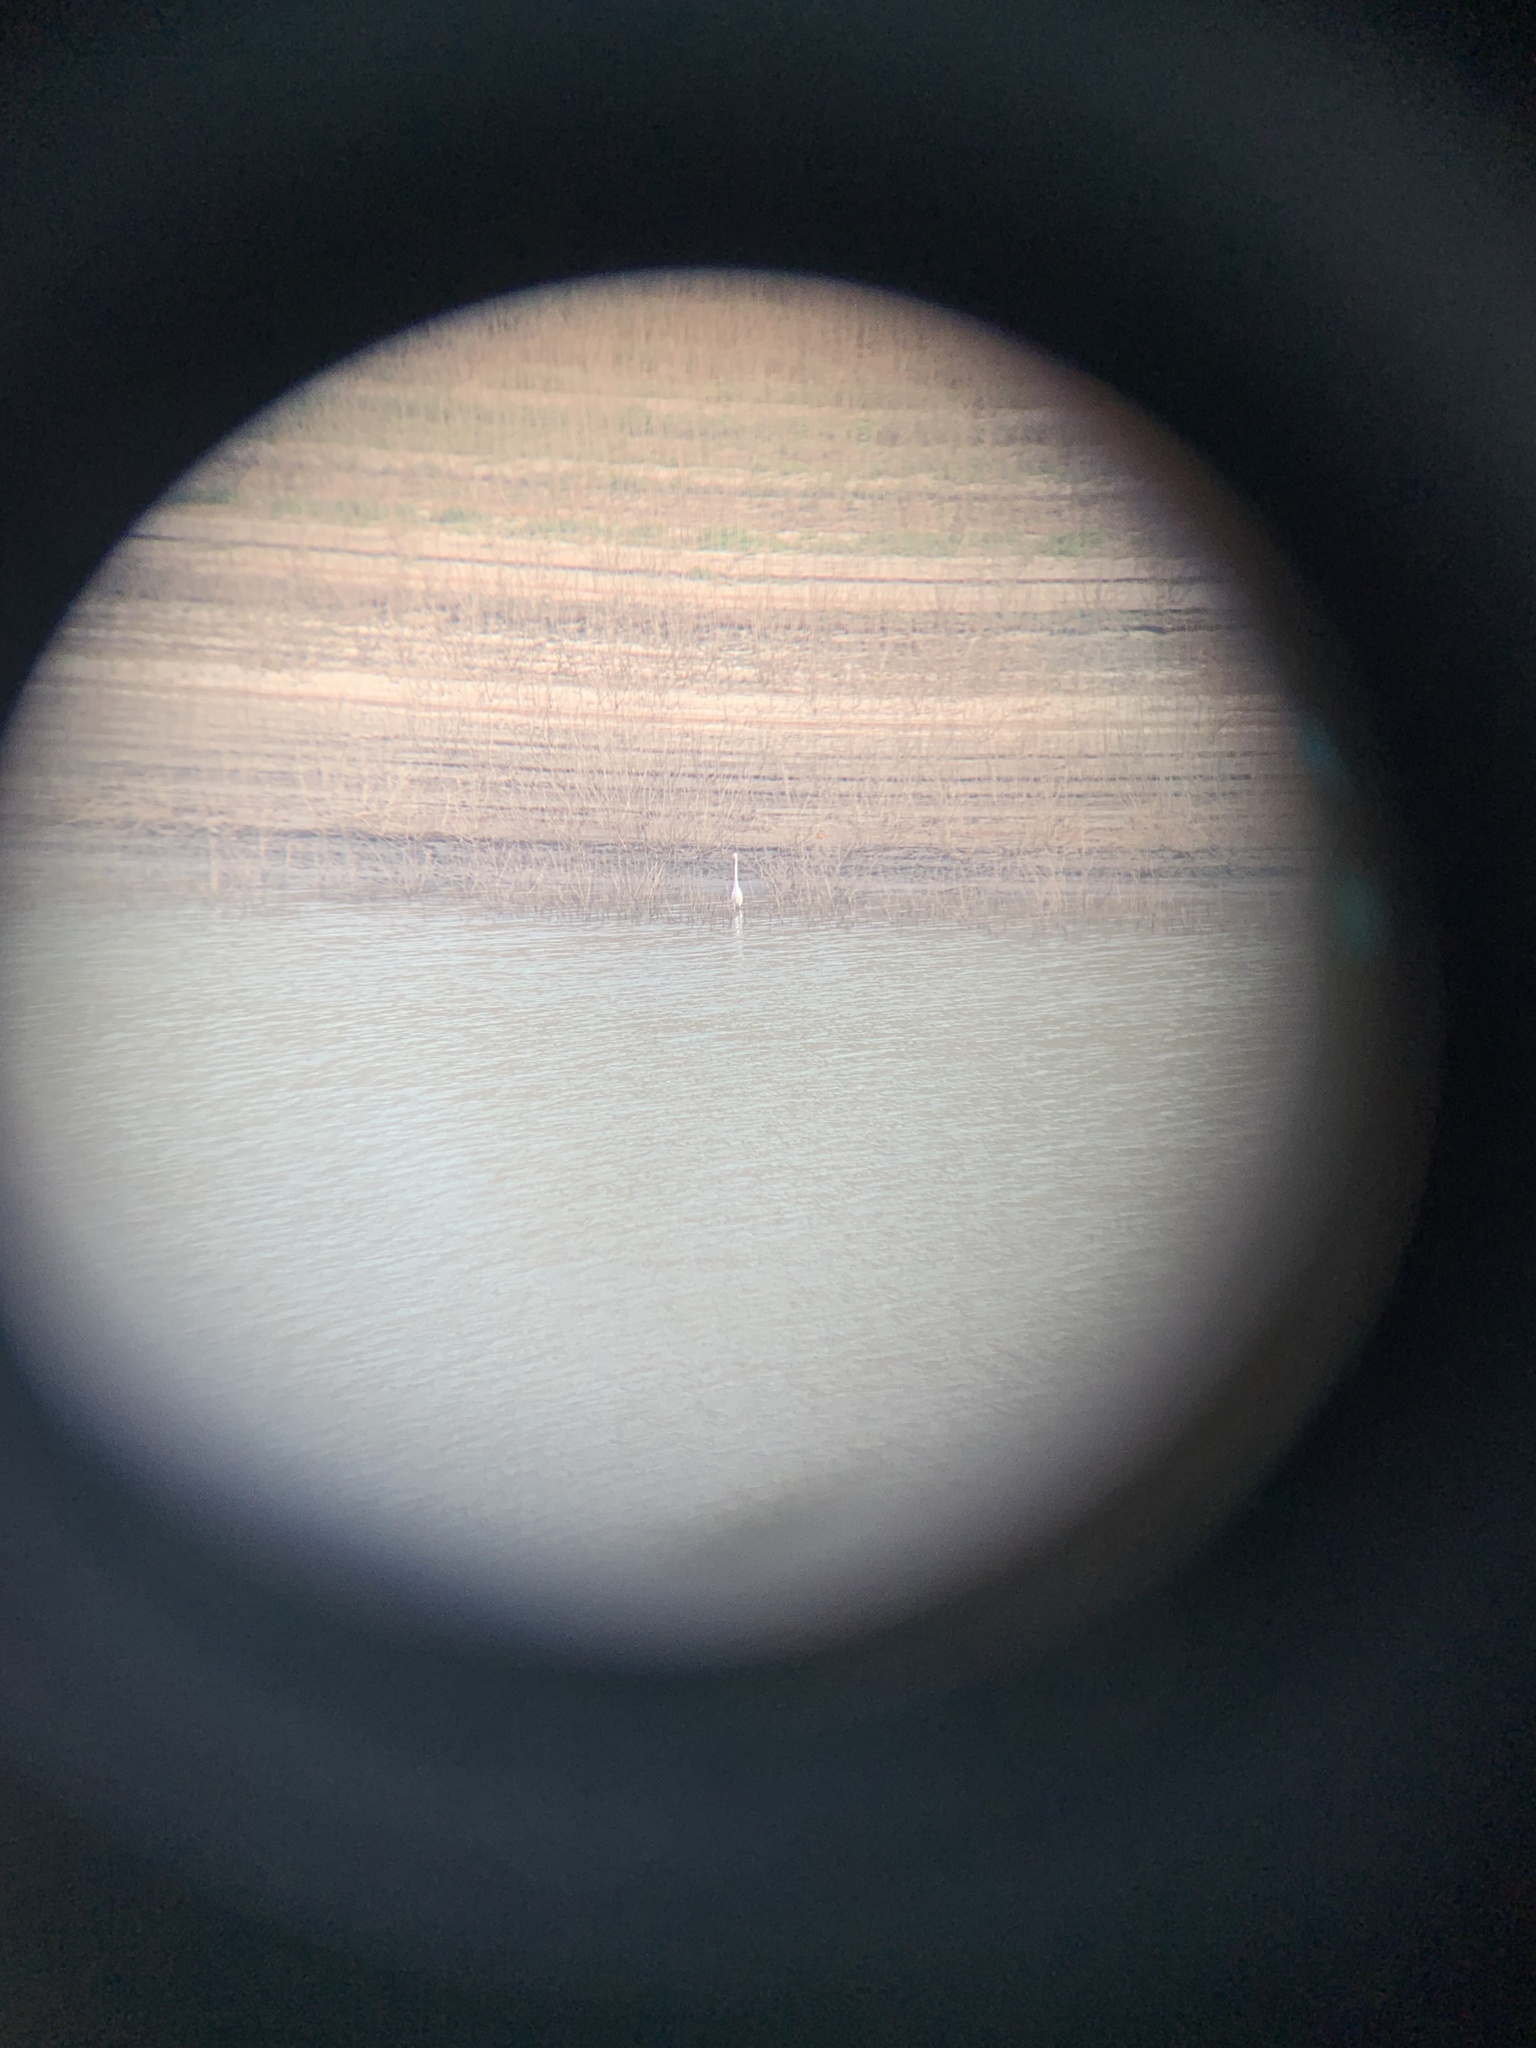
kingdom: Animalia
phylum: Chordata
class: Aves
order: Pelecaniformes
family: Ardeidae
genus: Ardea
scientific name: Ardea alba
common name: Great egret
